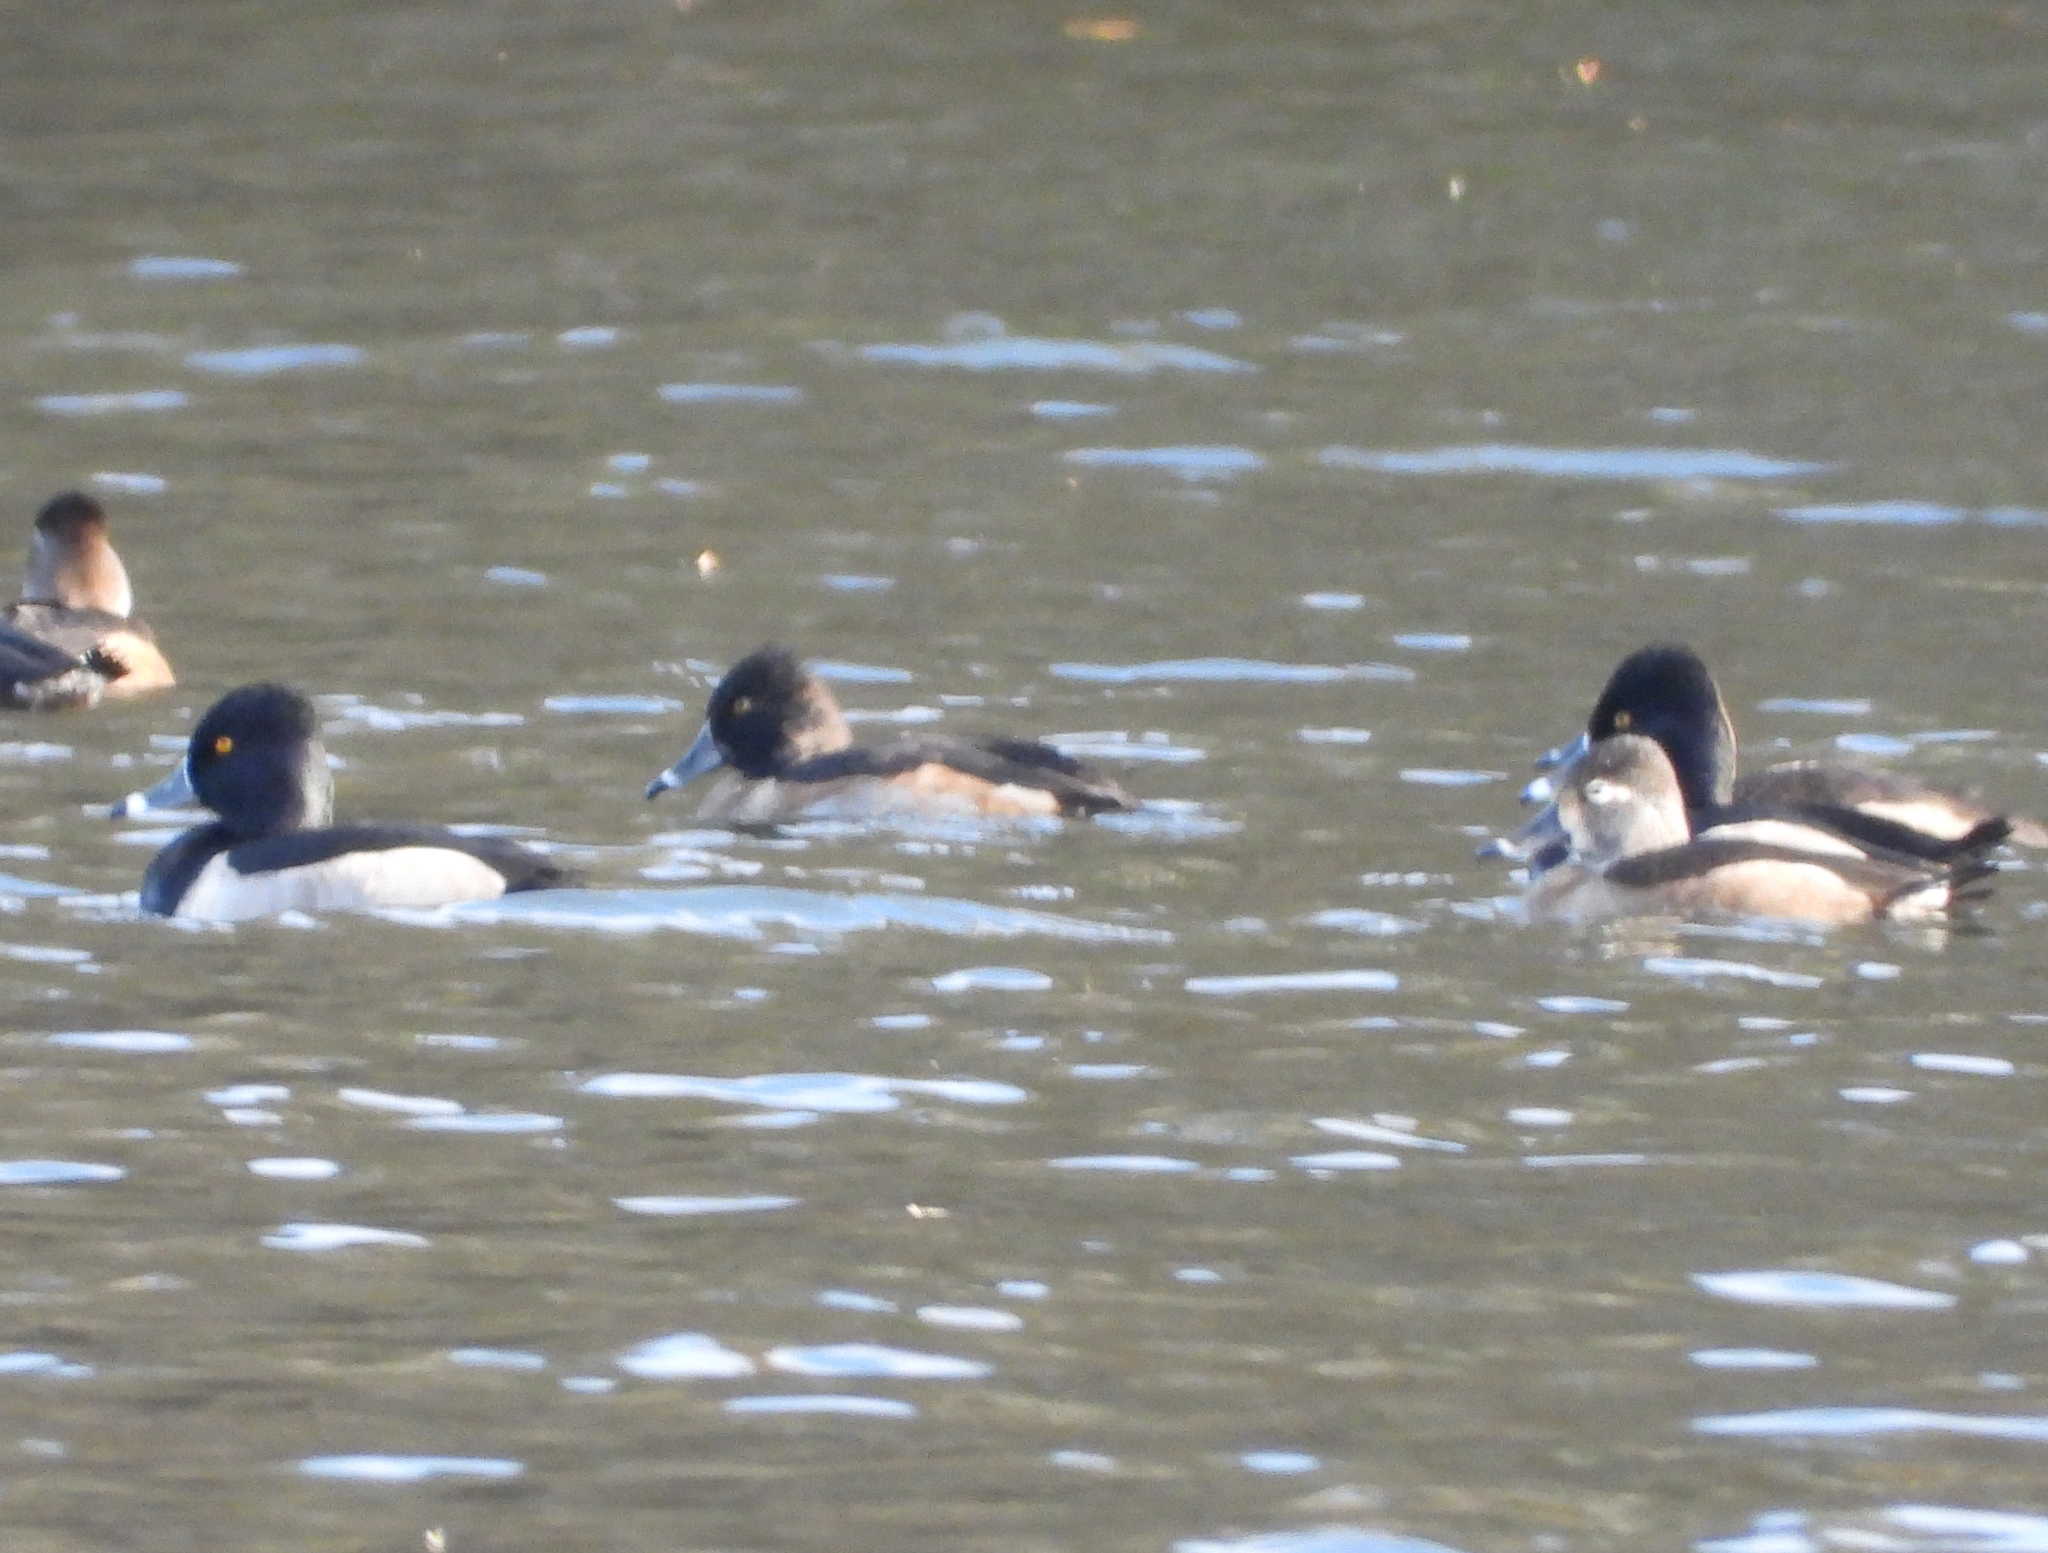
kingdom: Animalia
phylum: Chordata
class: Aves
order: Anseriformes
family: Anatidae
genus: Aythya
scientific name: Aythya collaris
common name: Ring-necked duck
